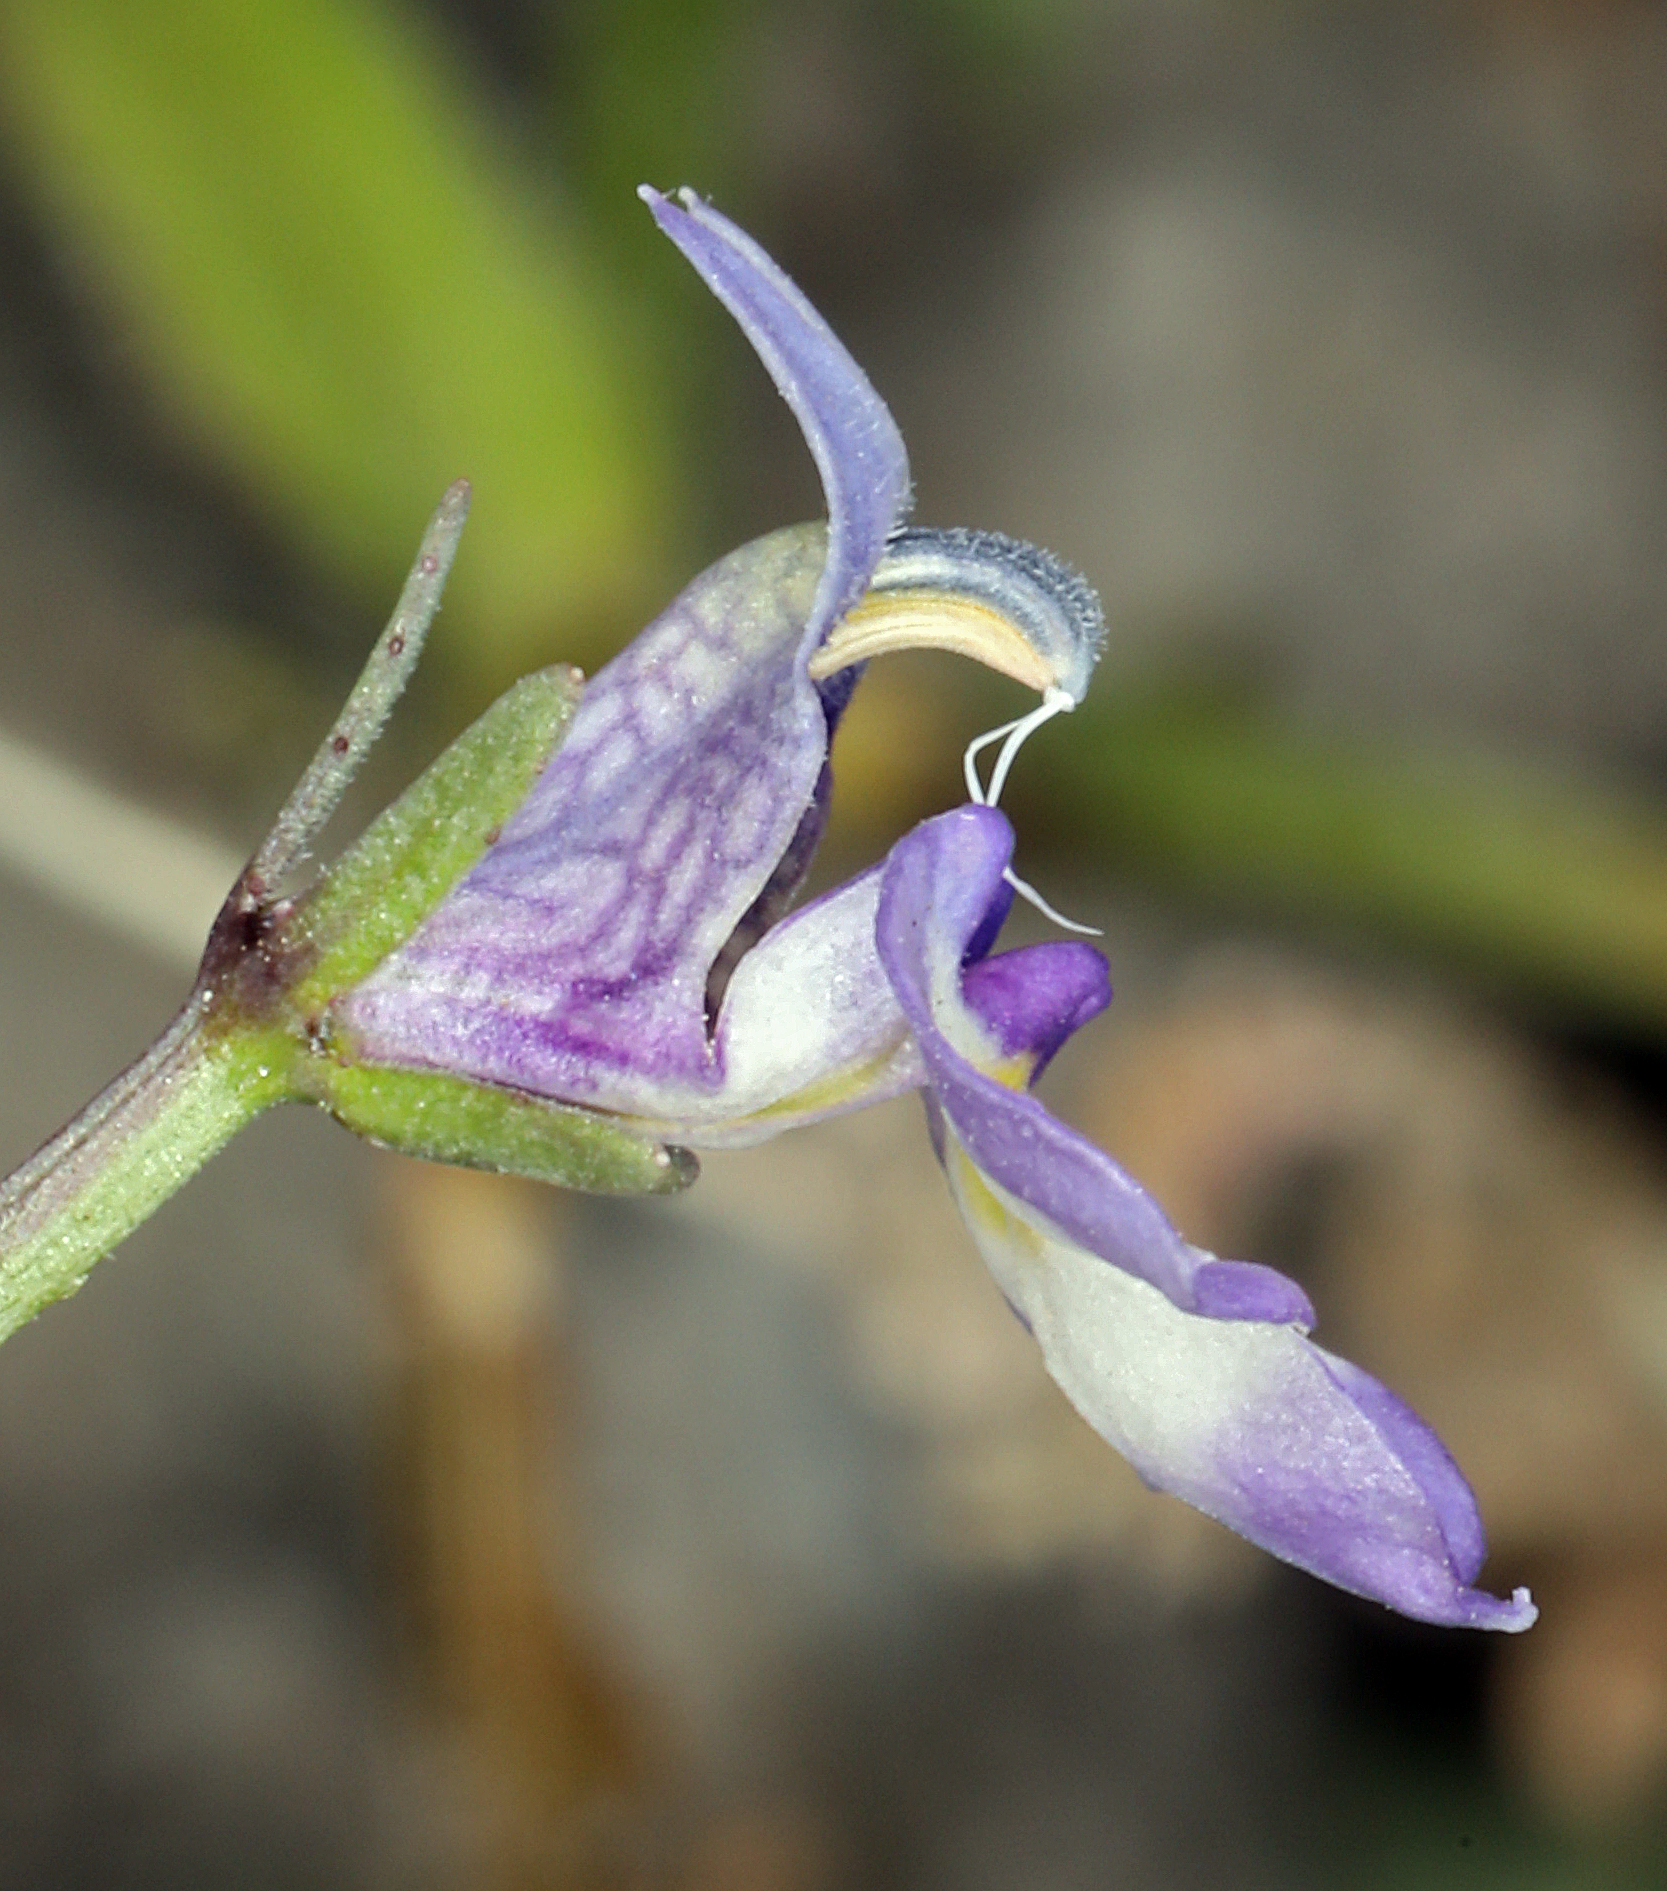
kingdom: Plantae
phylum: Tracheophyta
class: Magnoliopsida
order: Asterales
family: Campanulaceae
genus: Downingia
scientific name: Downingia bicornuta
